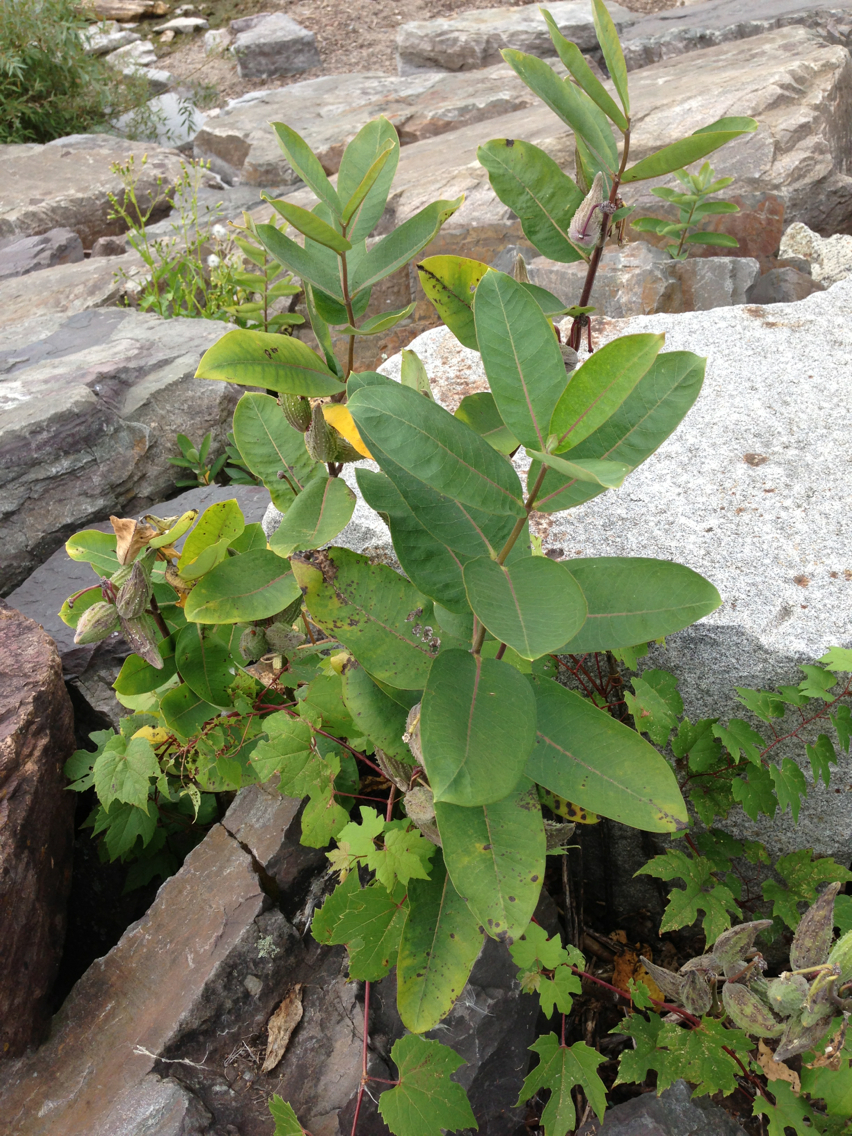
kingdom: Plantae
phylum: Tracheophyta
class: Magnoliopsida
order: Gentianales
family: Apocynaceae
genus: Asclepias
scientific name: Asclepias syriaca
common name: Common milkweed
